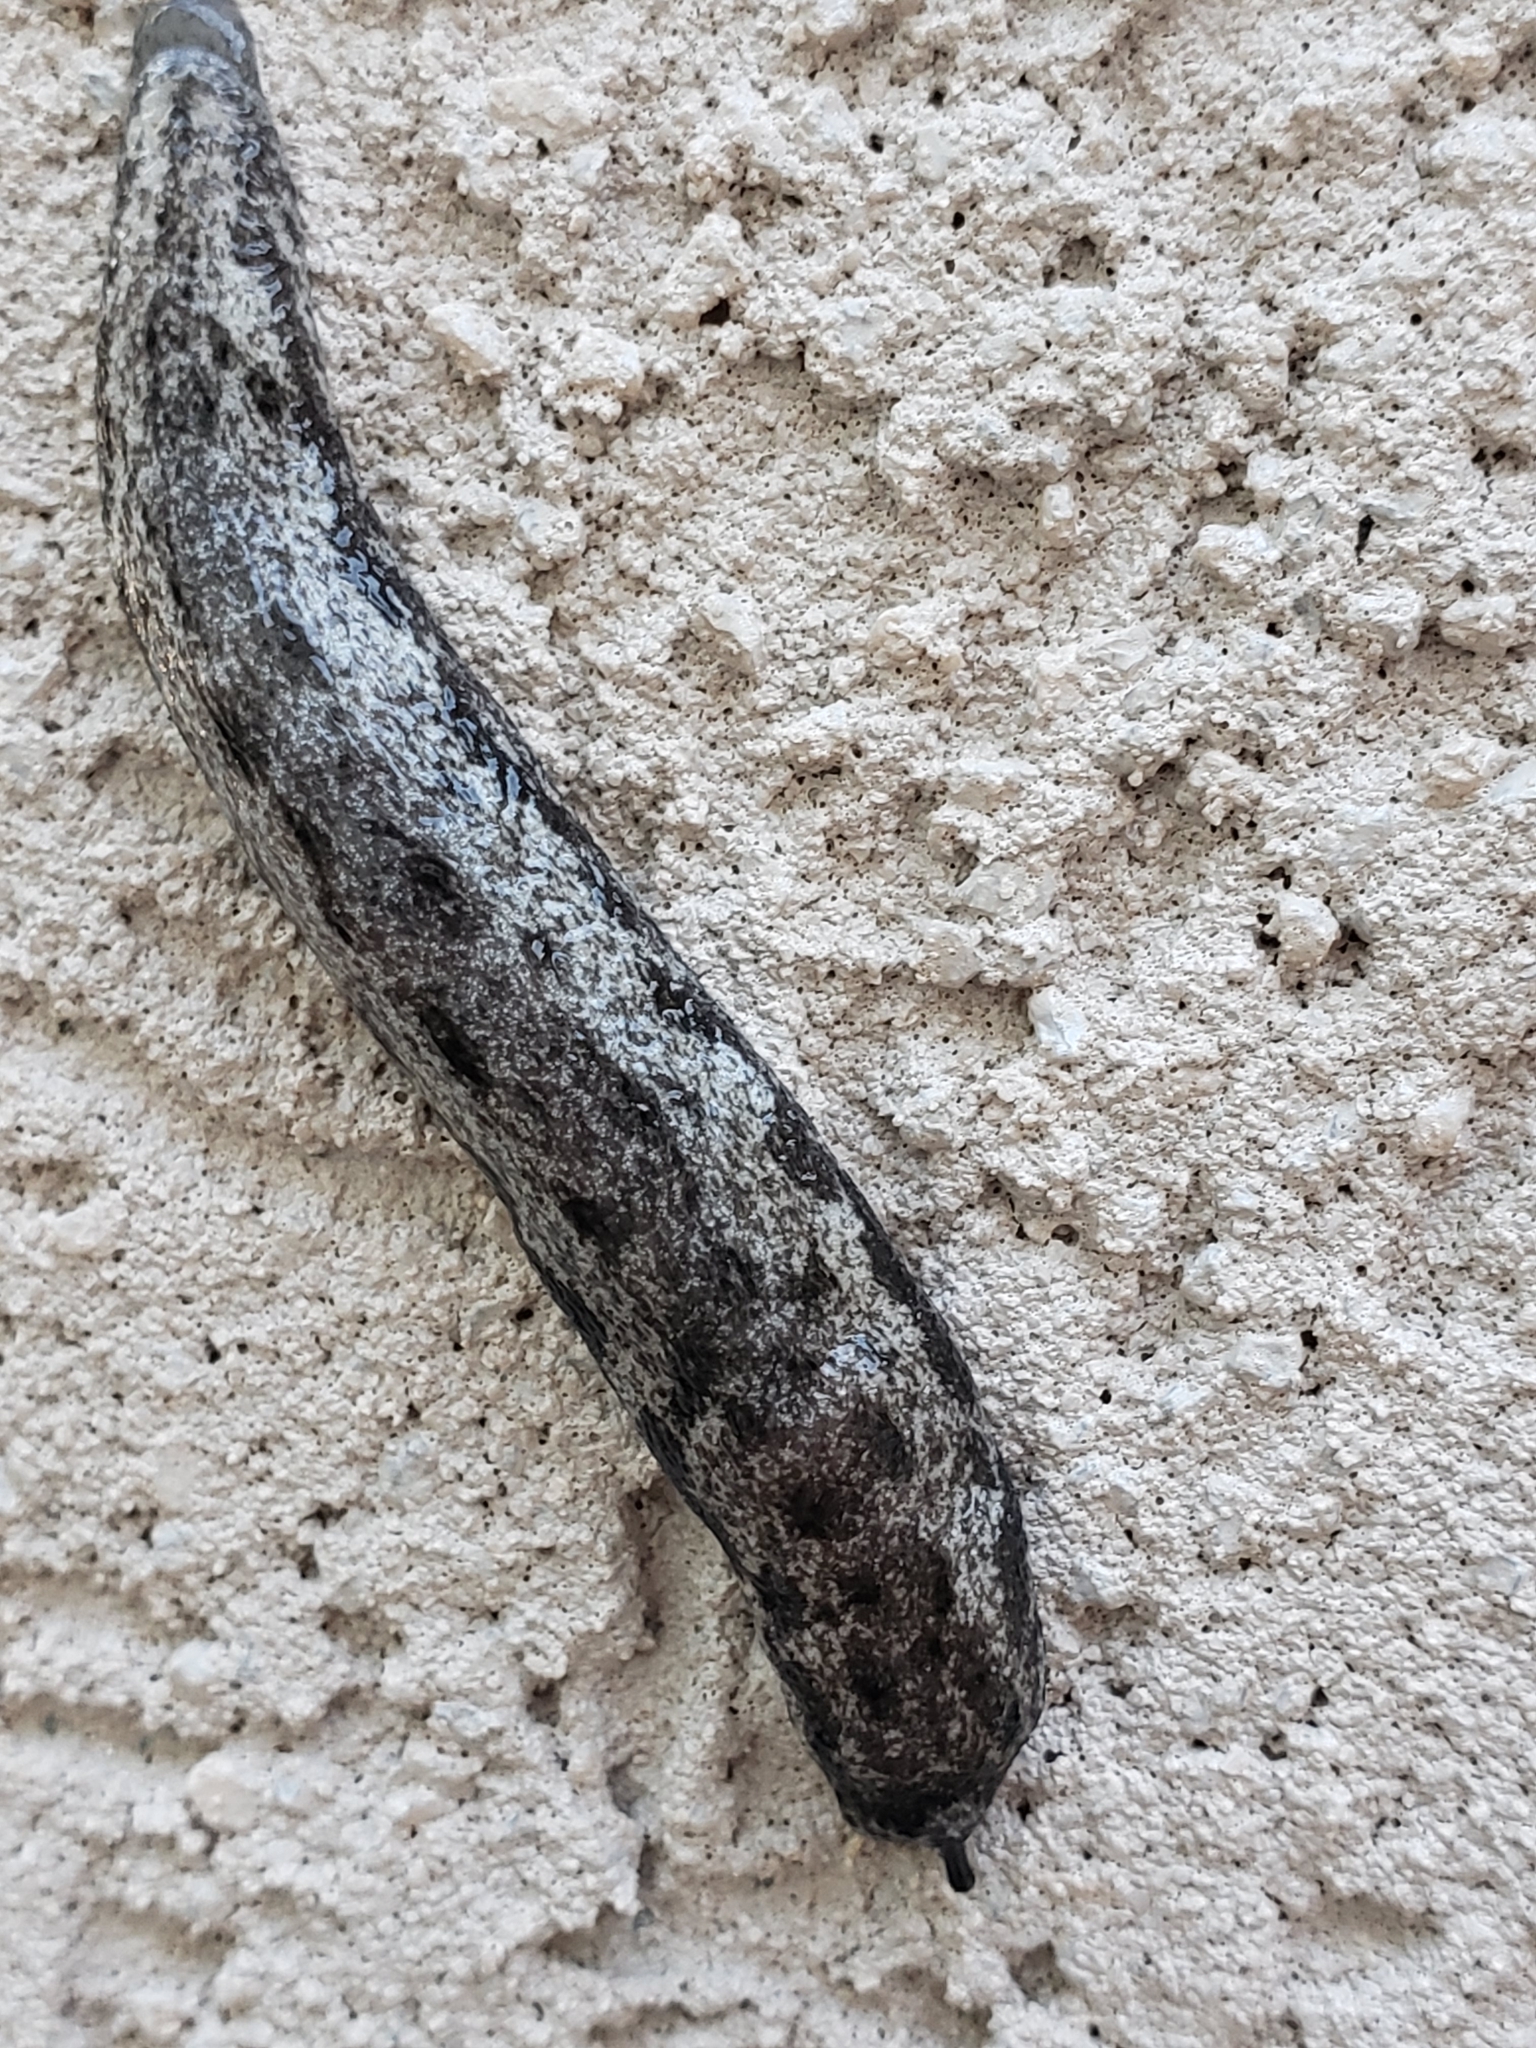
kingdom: Animalia
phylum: Mollusca
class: Gastropoda
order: Stylommatophora
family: Philomycidae
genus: Megapallifera
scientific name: Megapallifera mutabilis
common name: Changeable mantleslug
